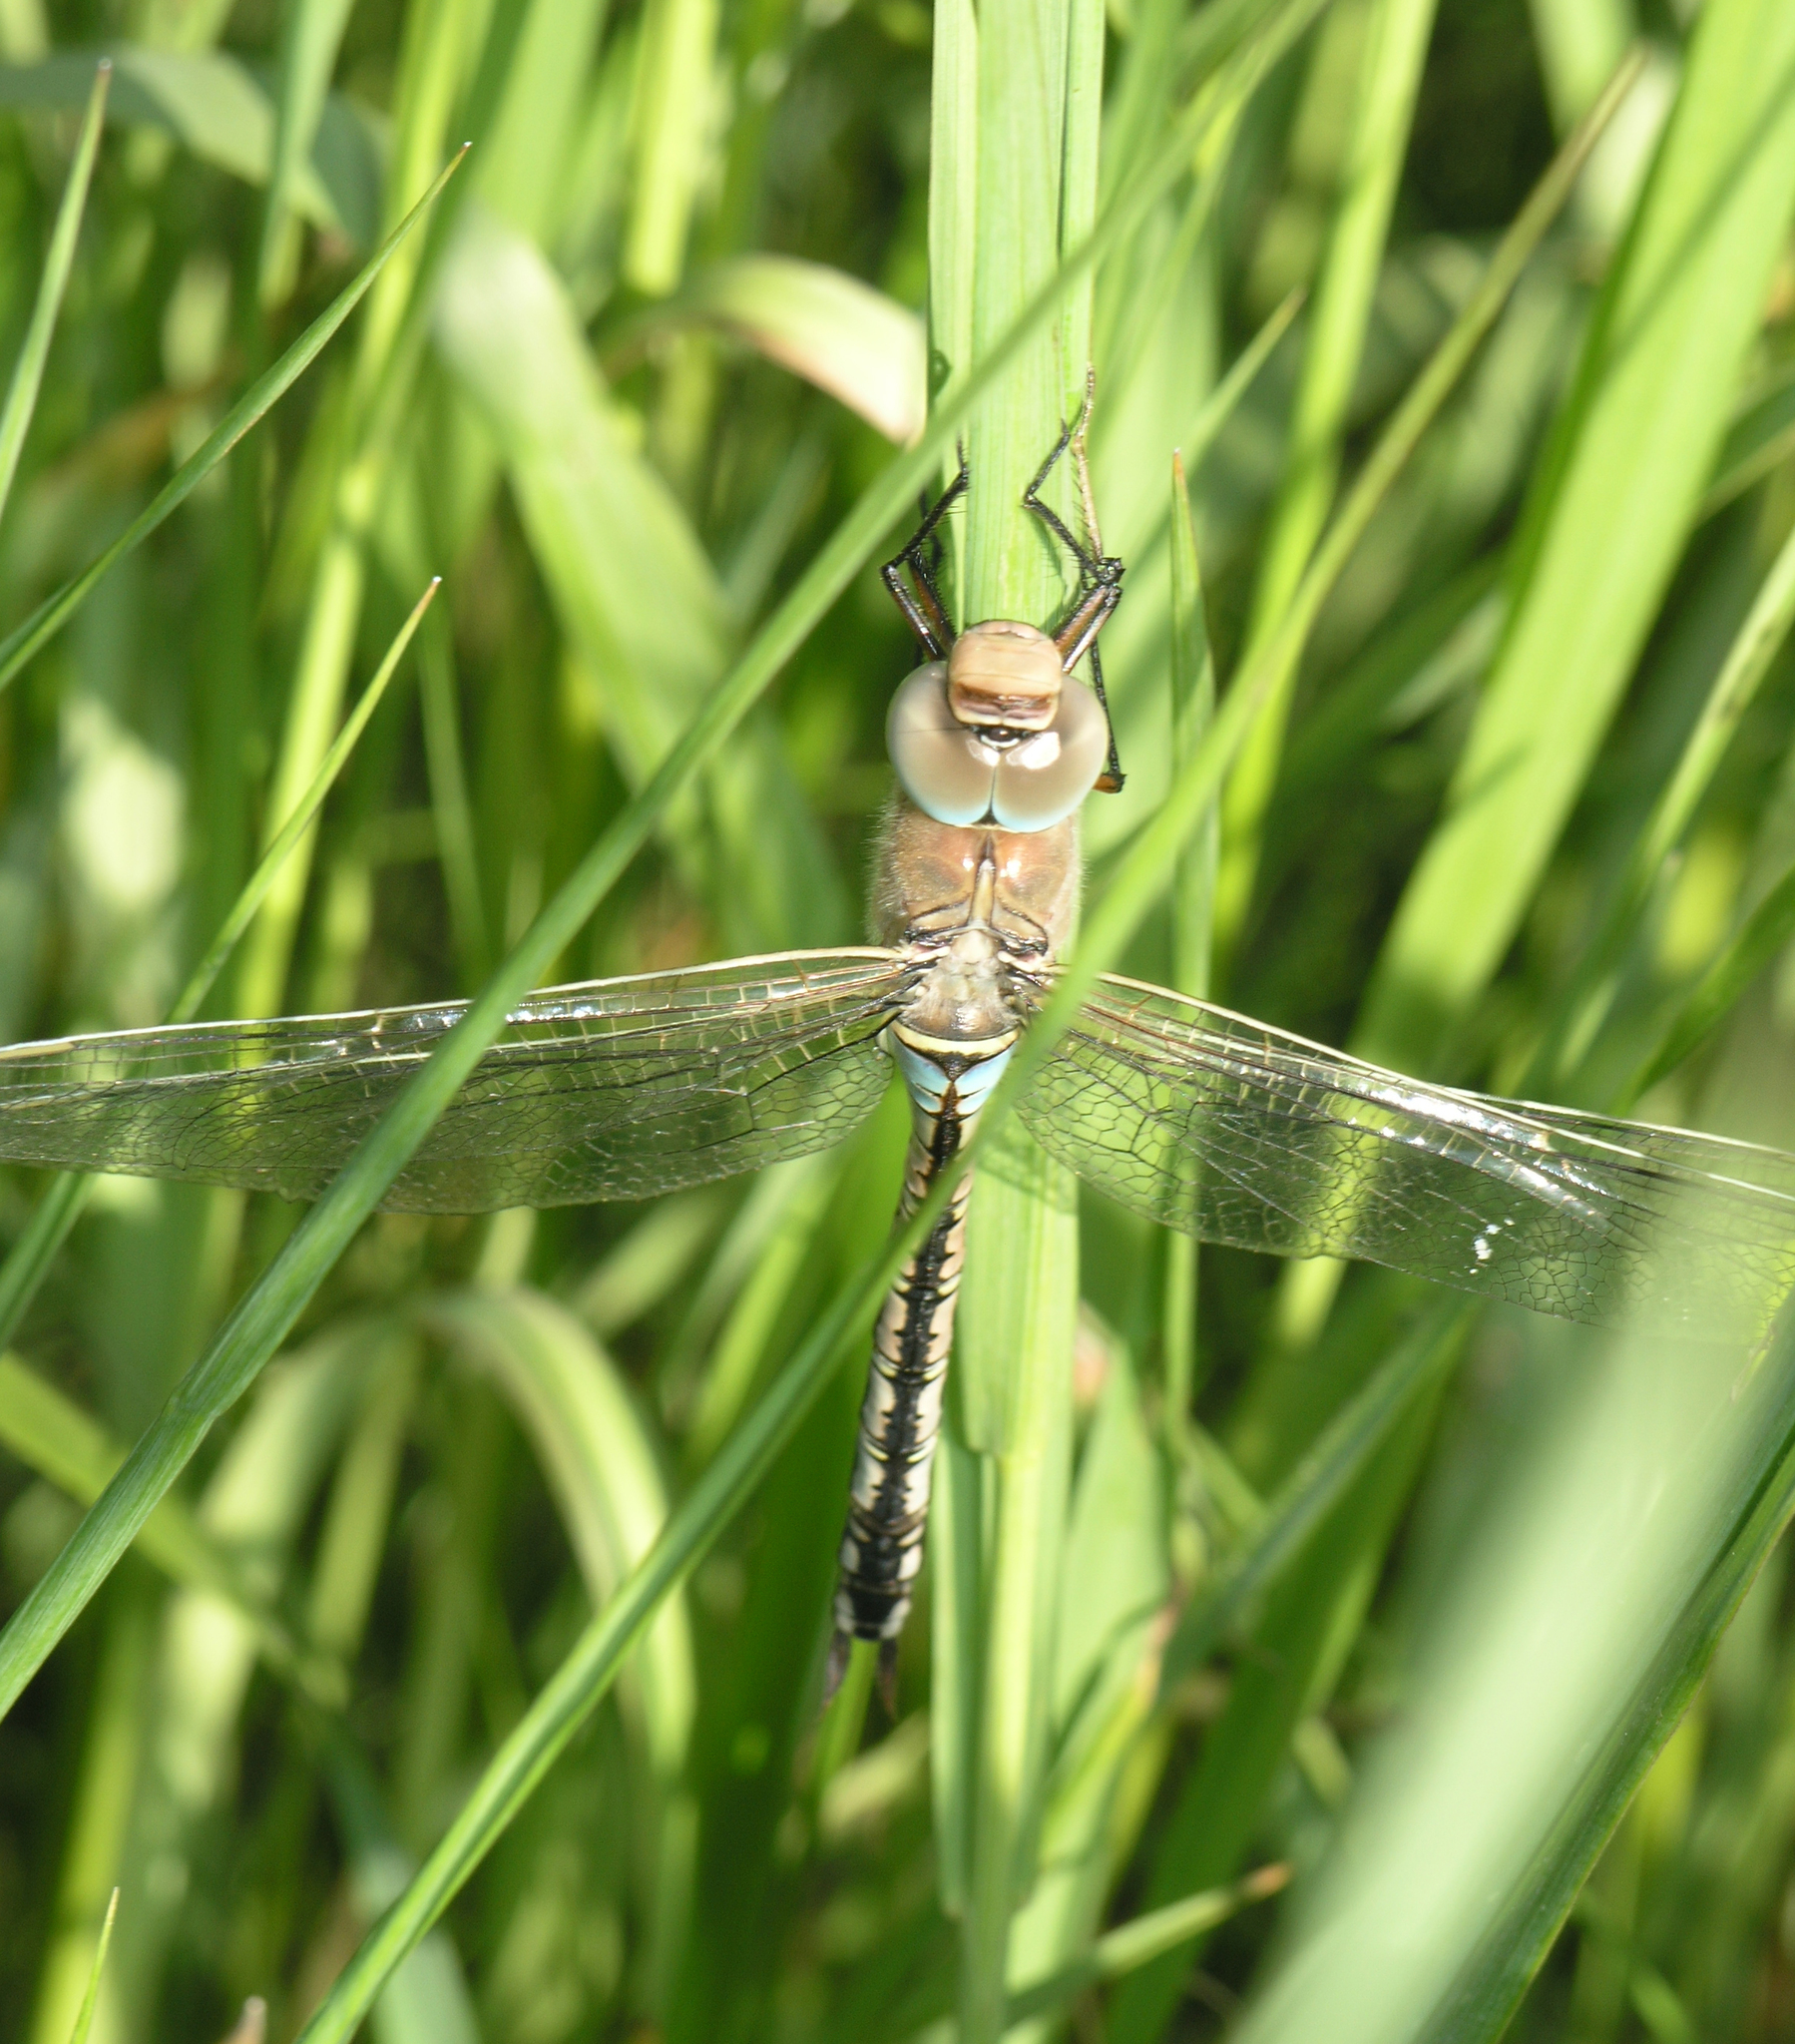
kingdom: Animalia
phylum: Arthropoda
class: Insecta
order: Odonata
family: Aeshnidae
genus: Anax
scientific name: Anax parthenope
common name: Lesser emperor
